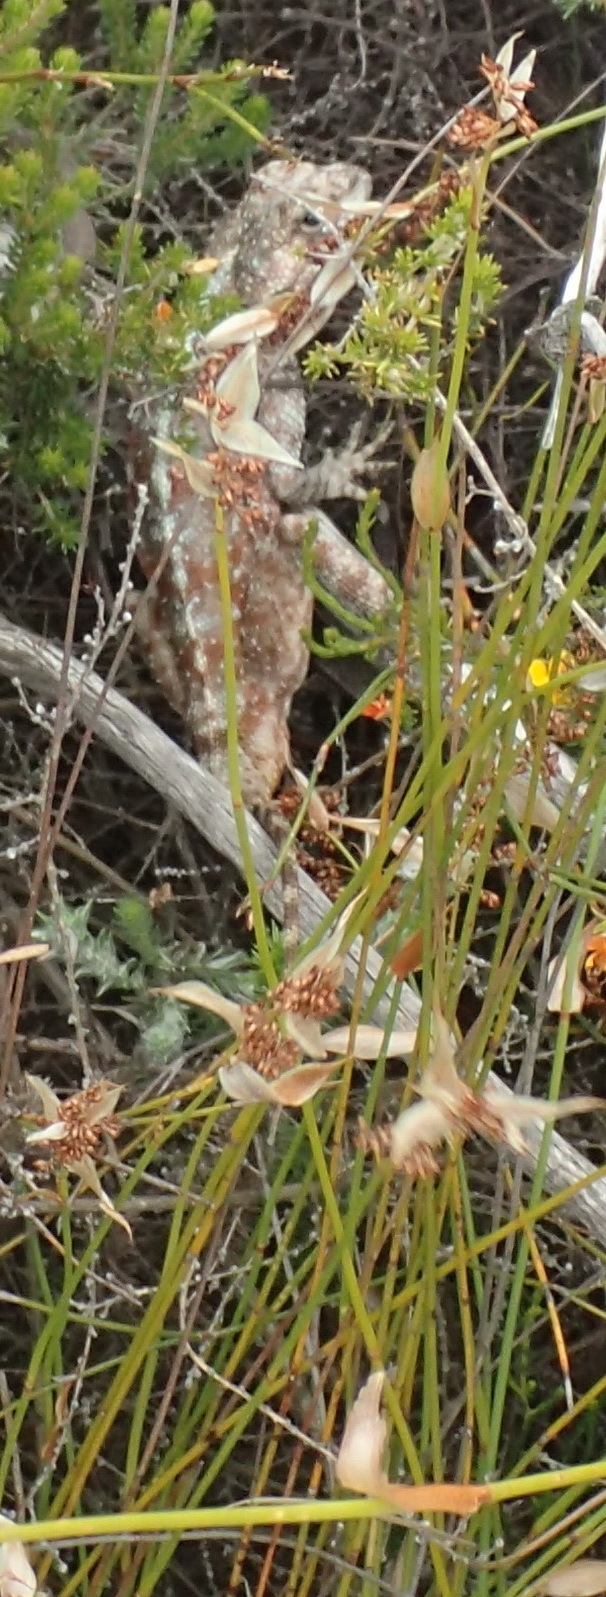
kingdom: Animalia
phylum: Chordata
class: Squamata
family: Agamidae
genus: Agama
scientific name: Agama atra
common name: Southern african rock agama
